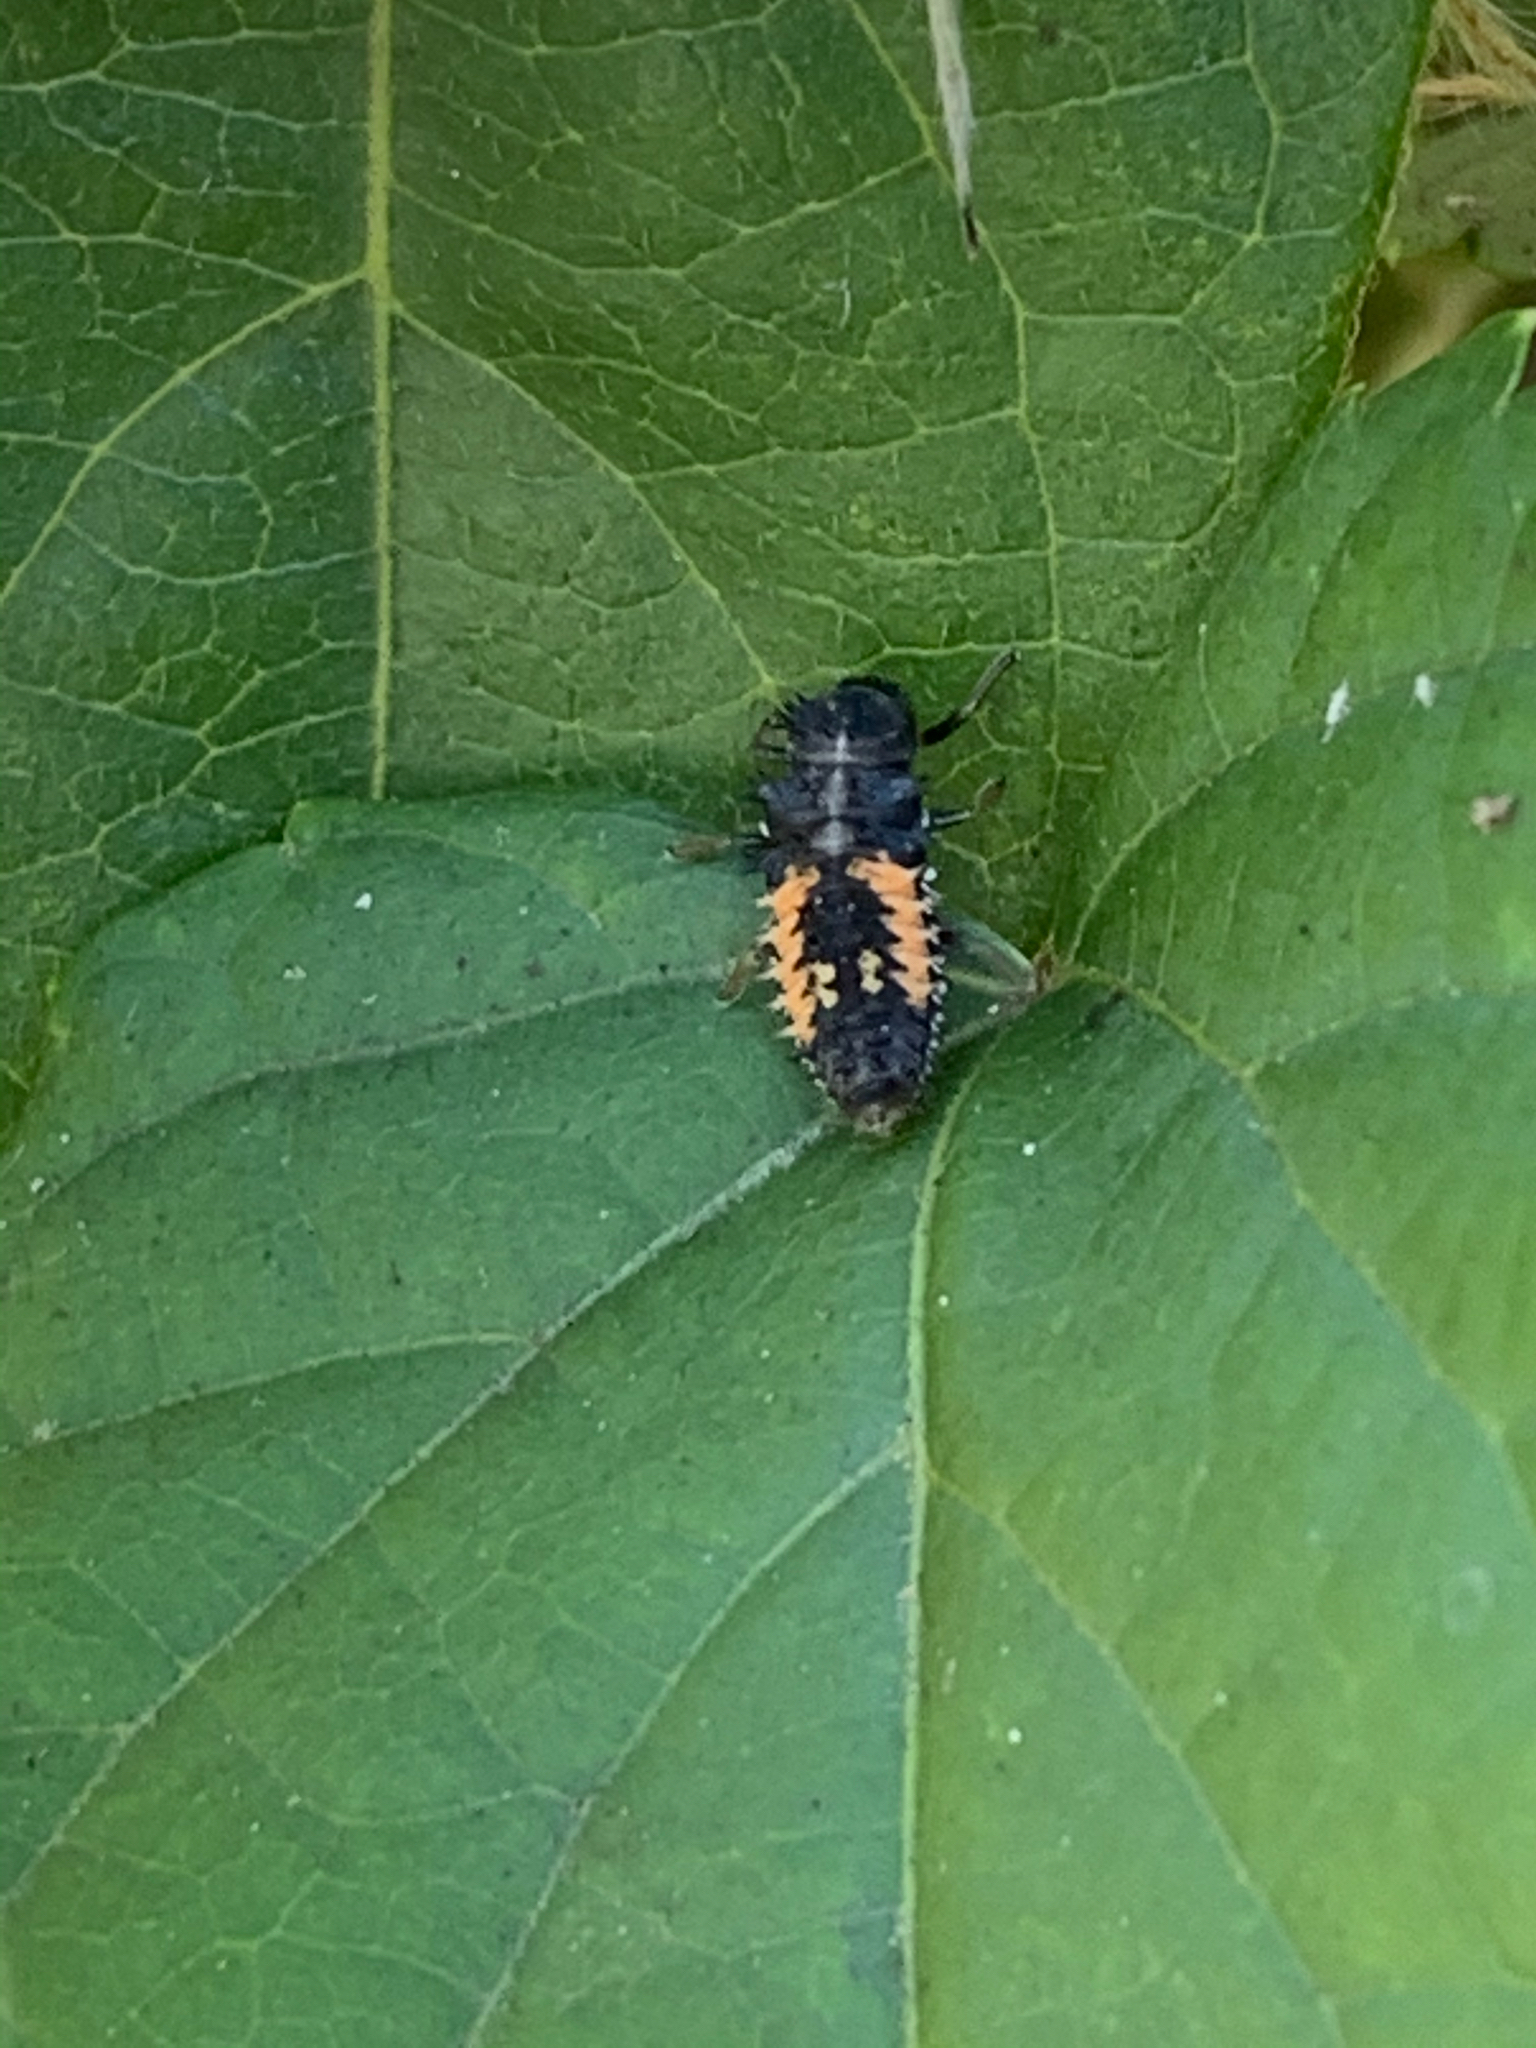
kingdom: Animalia
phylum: Arthropoda
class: Insecta
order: Coleoptera
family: Coccinellidae
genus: Harmonia
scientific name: Harmonia axyridis
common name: Harlequin ladybird
